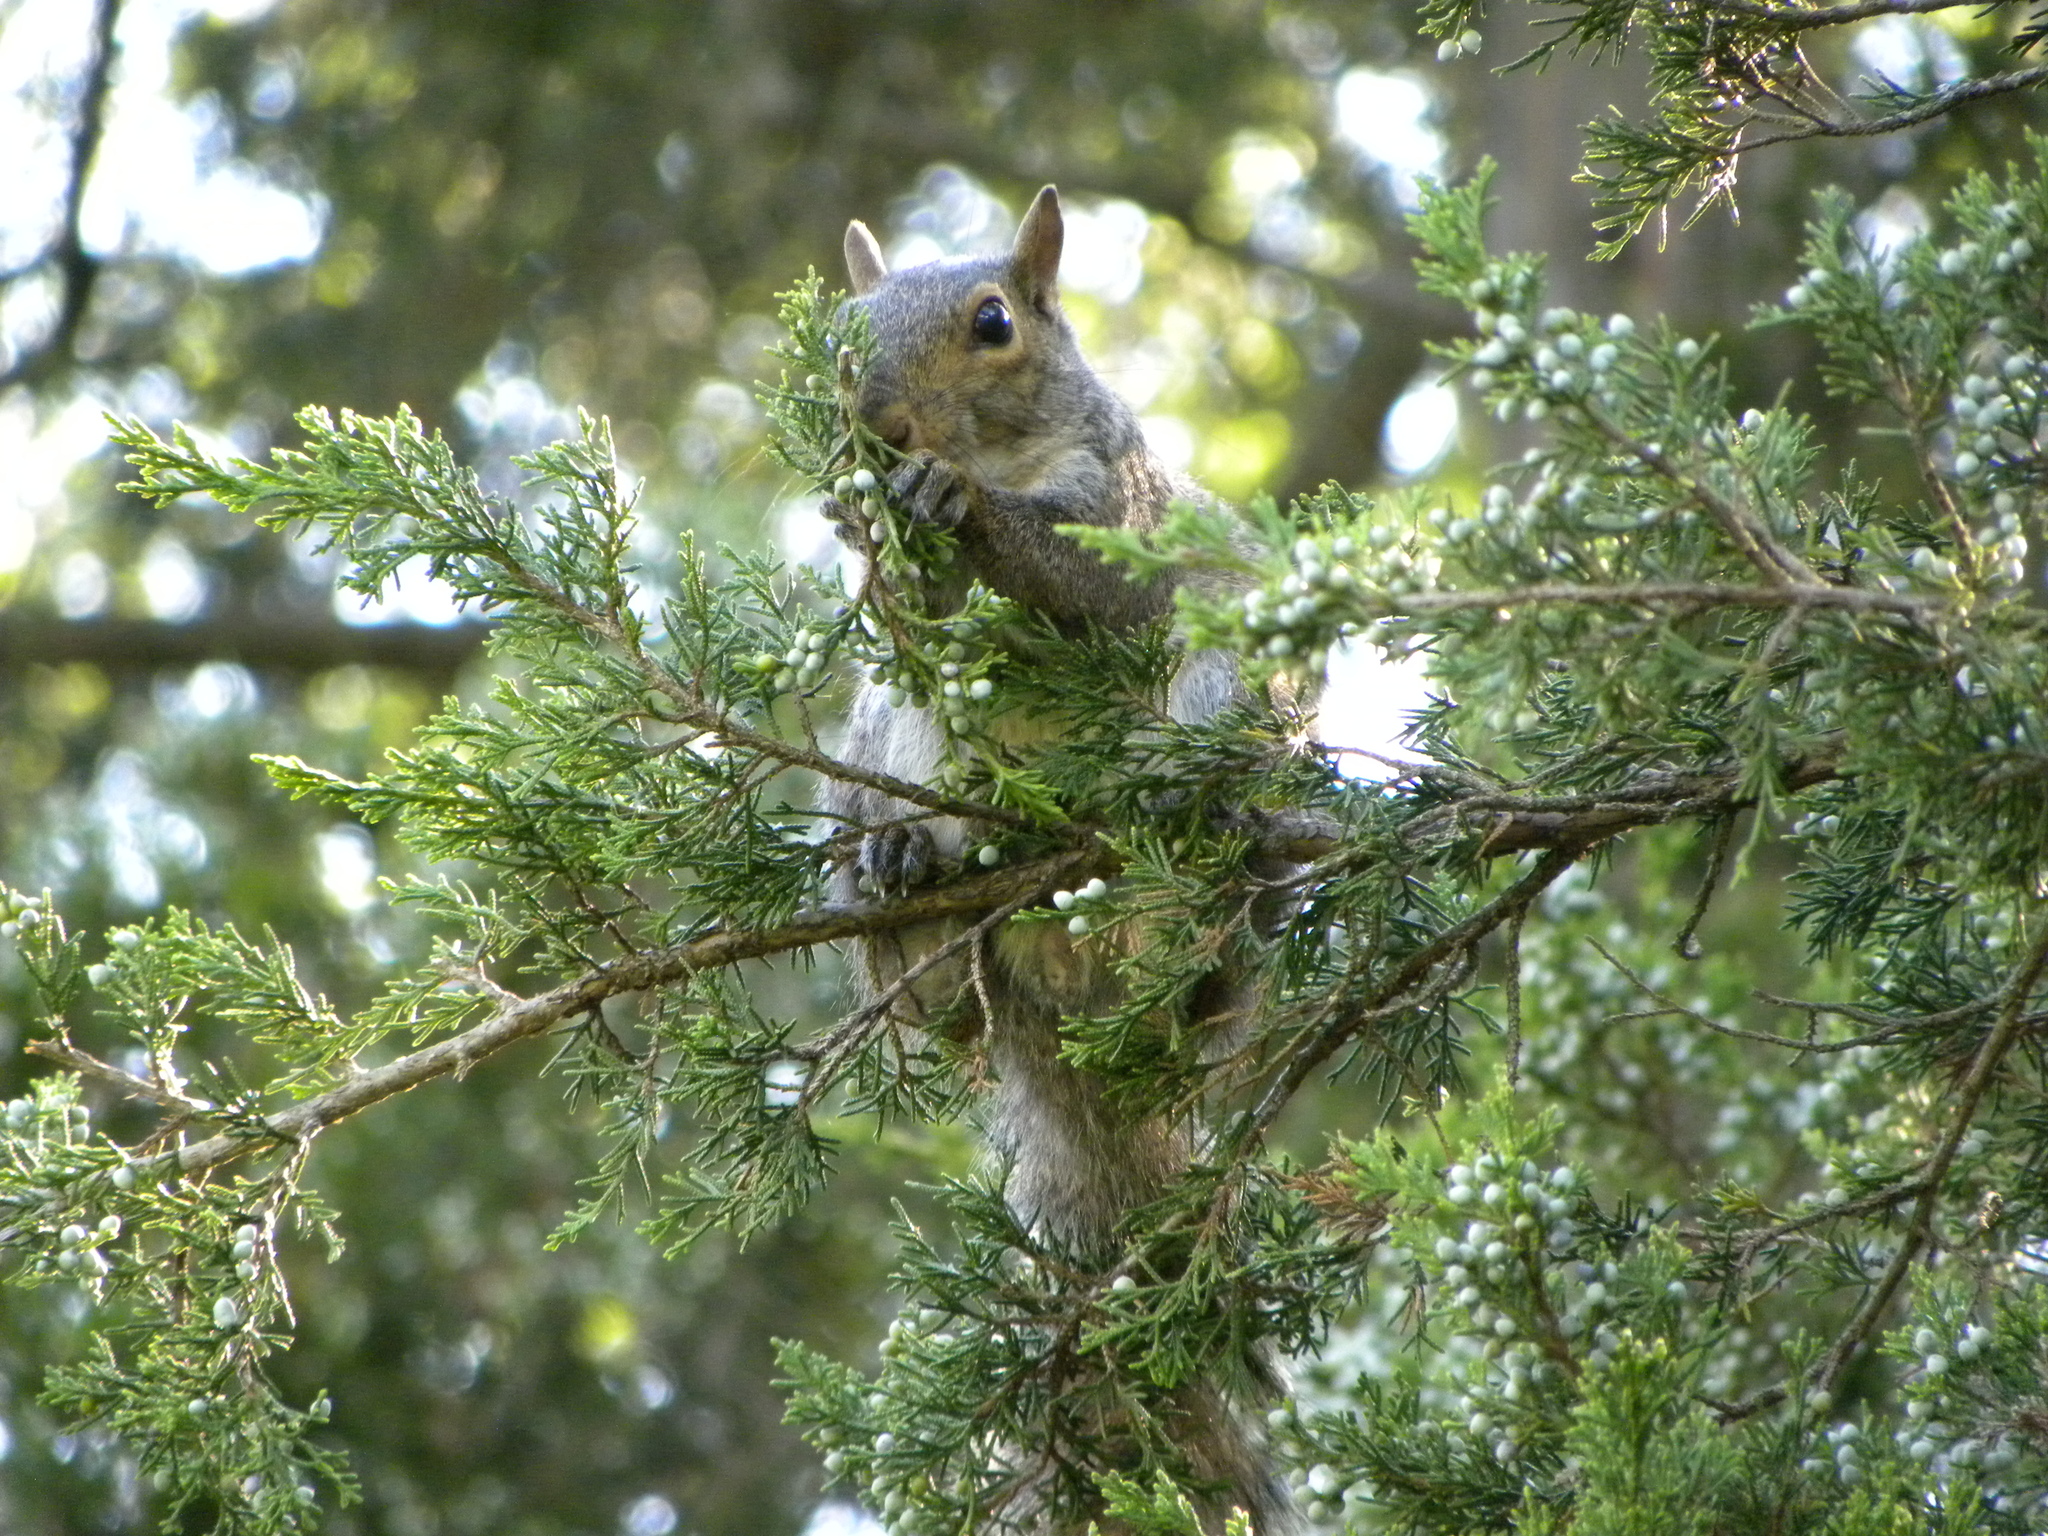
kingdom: Plantae
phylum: Tracheophyta
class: Pinopsida
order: Pinales
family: Cupressaceae
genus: Juniperus
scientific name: Juniperus virginiana
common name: Red juniper
